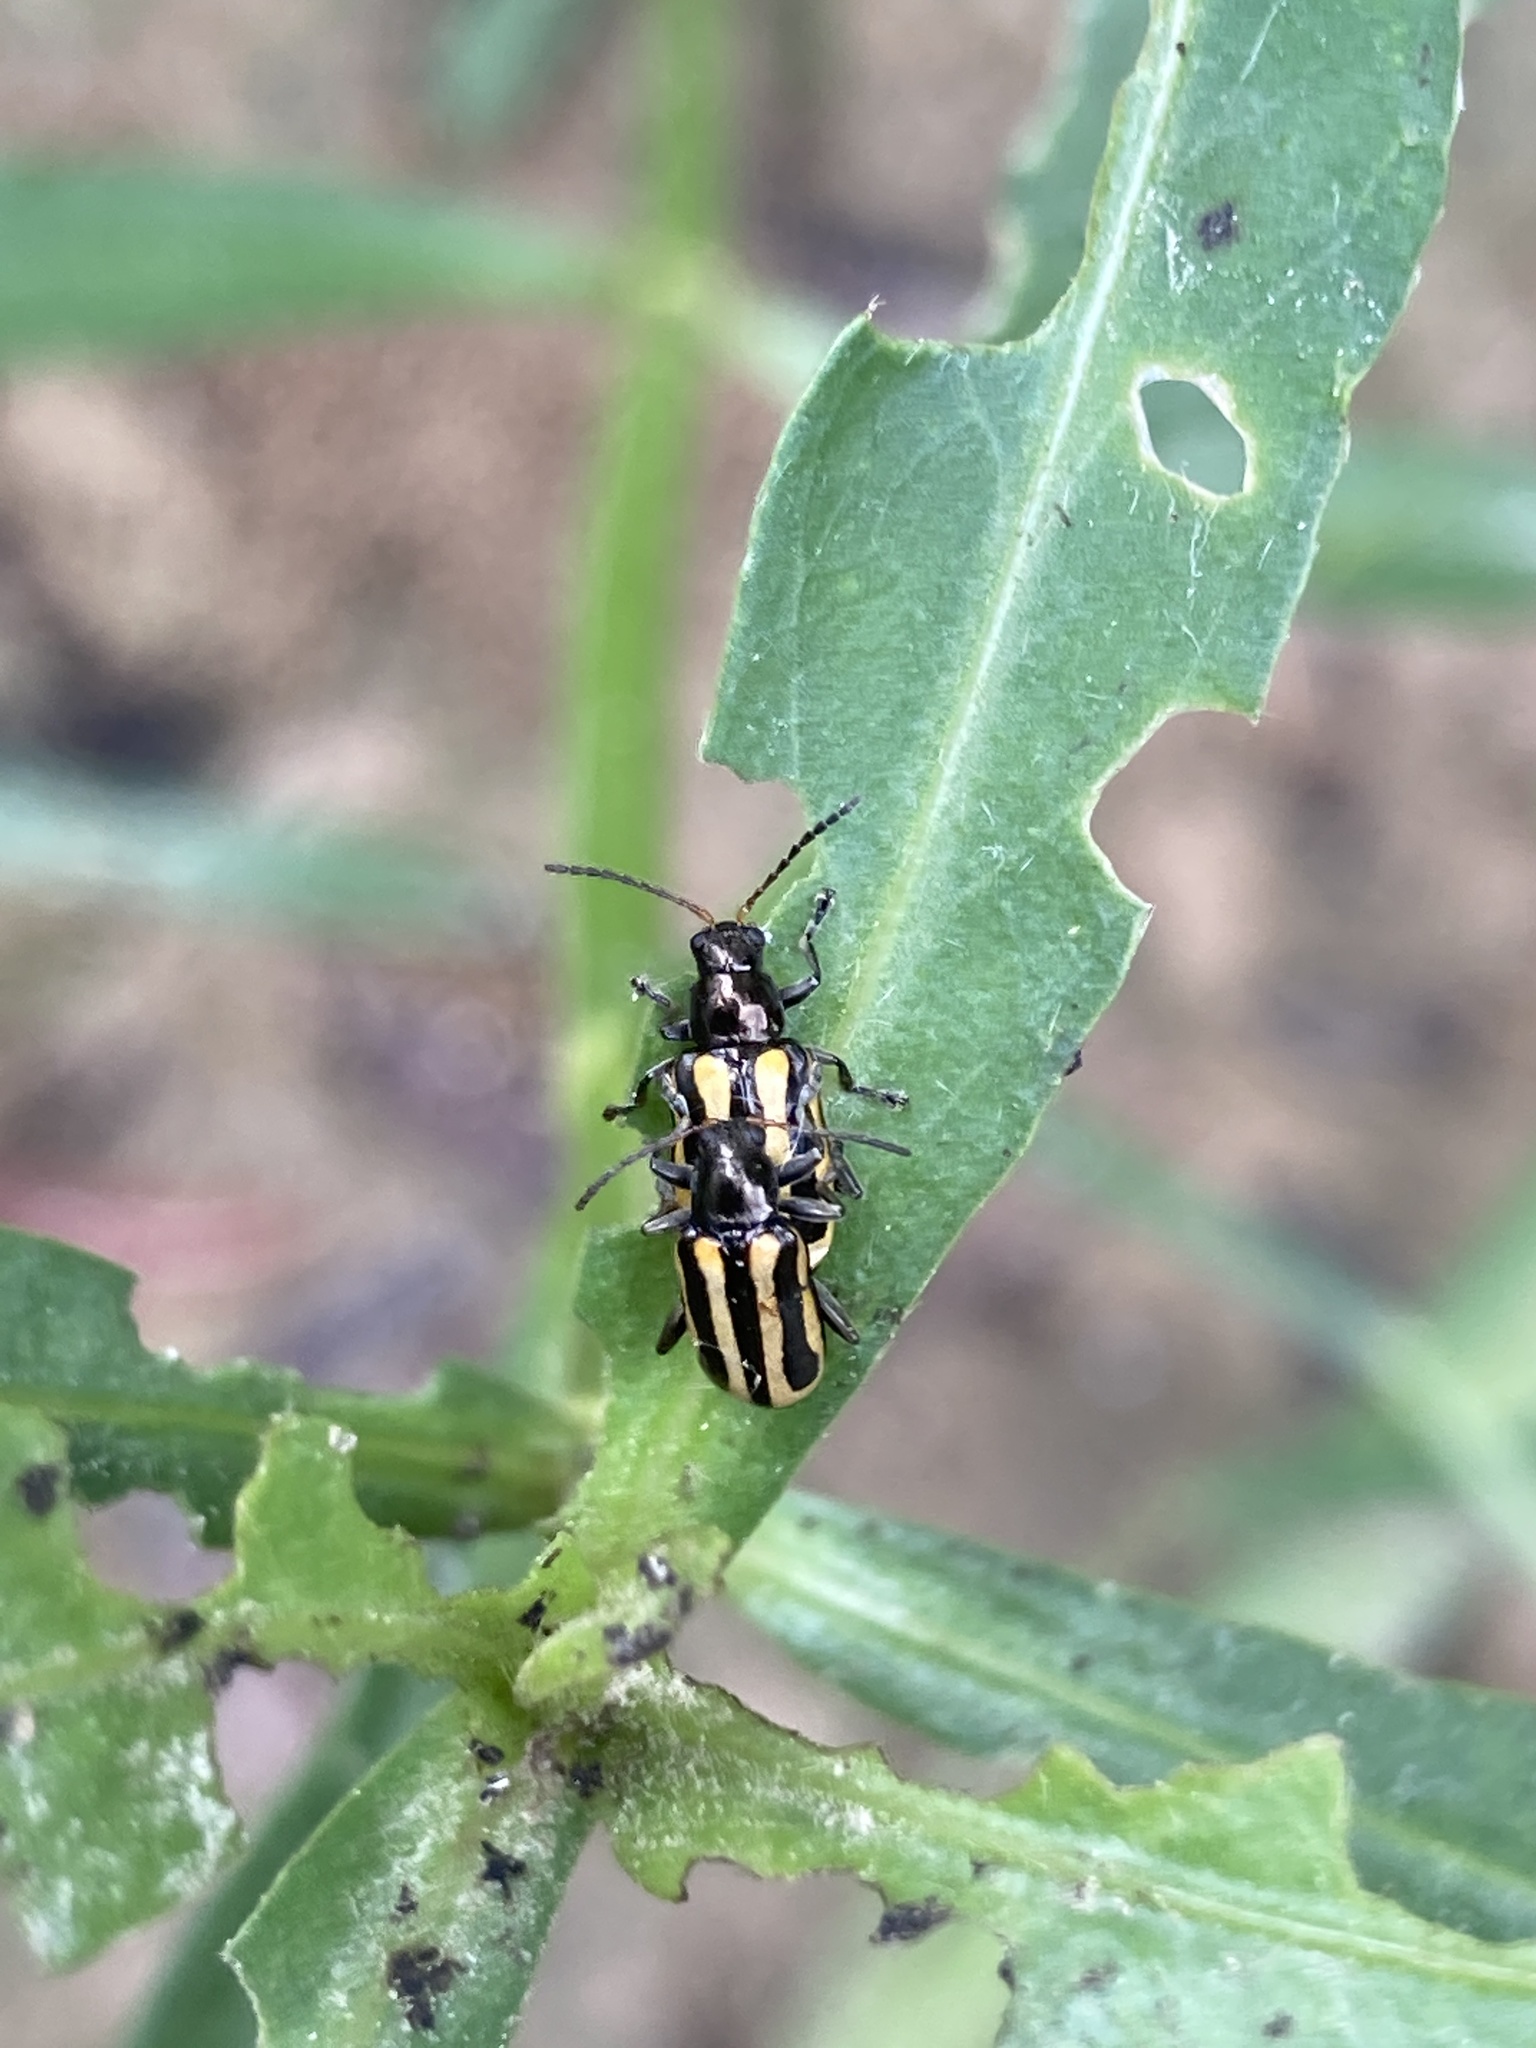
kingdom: Plantae
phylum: Tracheophyta
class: Magnoliopsida
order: Caryophyllales
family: Amaranthaceae
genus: Alternanthera
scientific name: Alternanthera philoxeroides
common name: Alligatorweed
